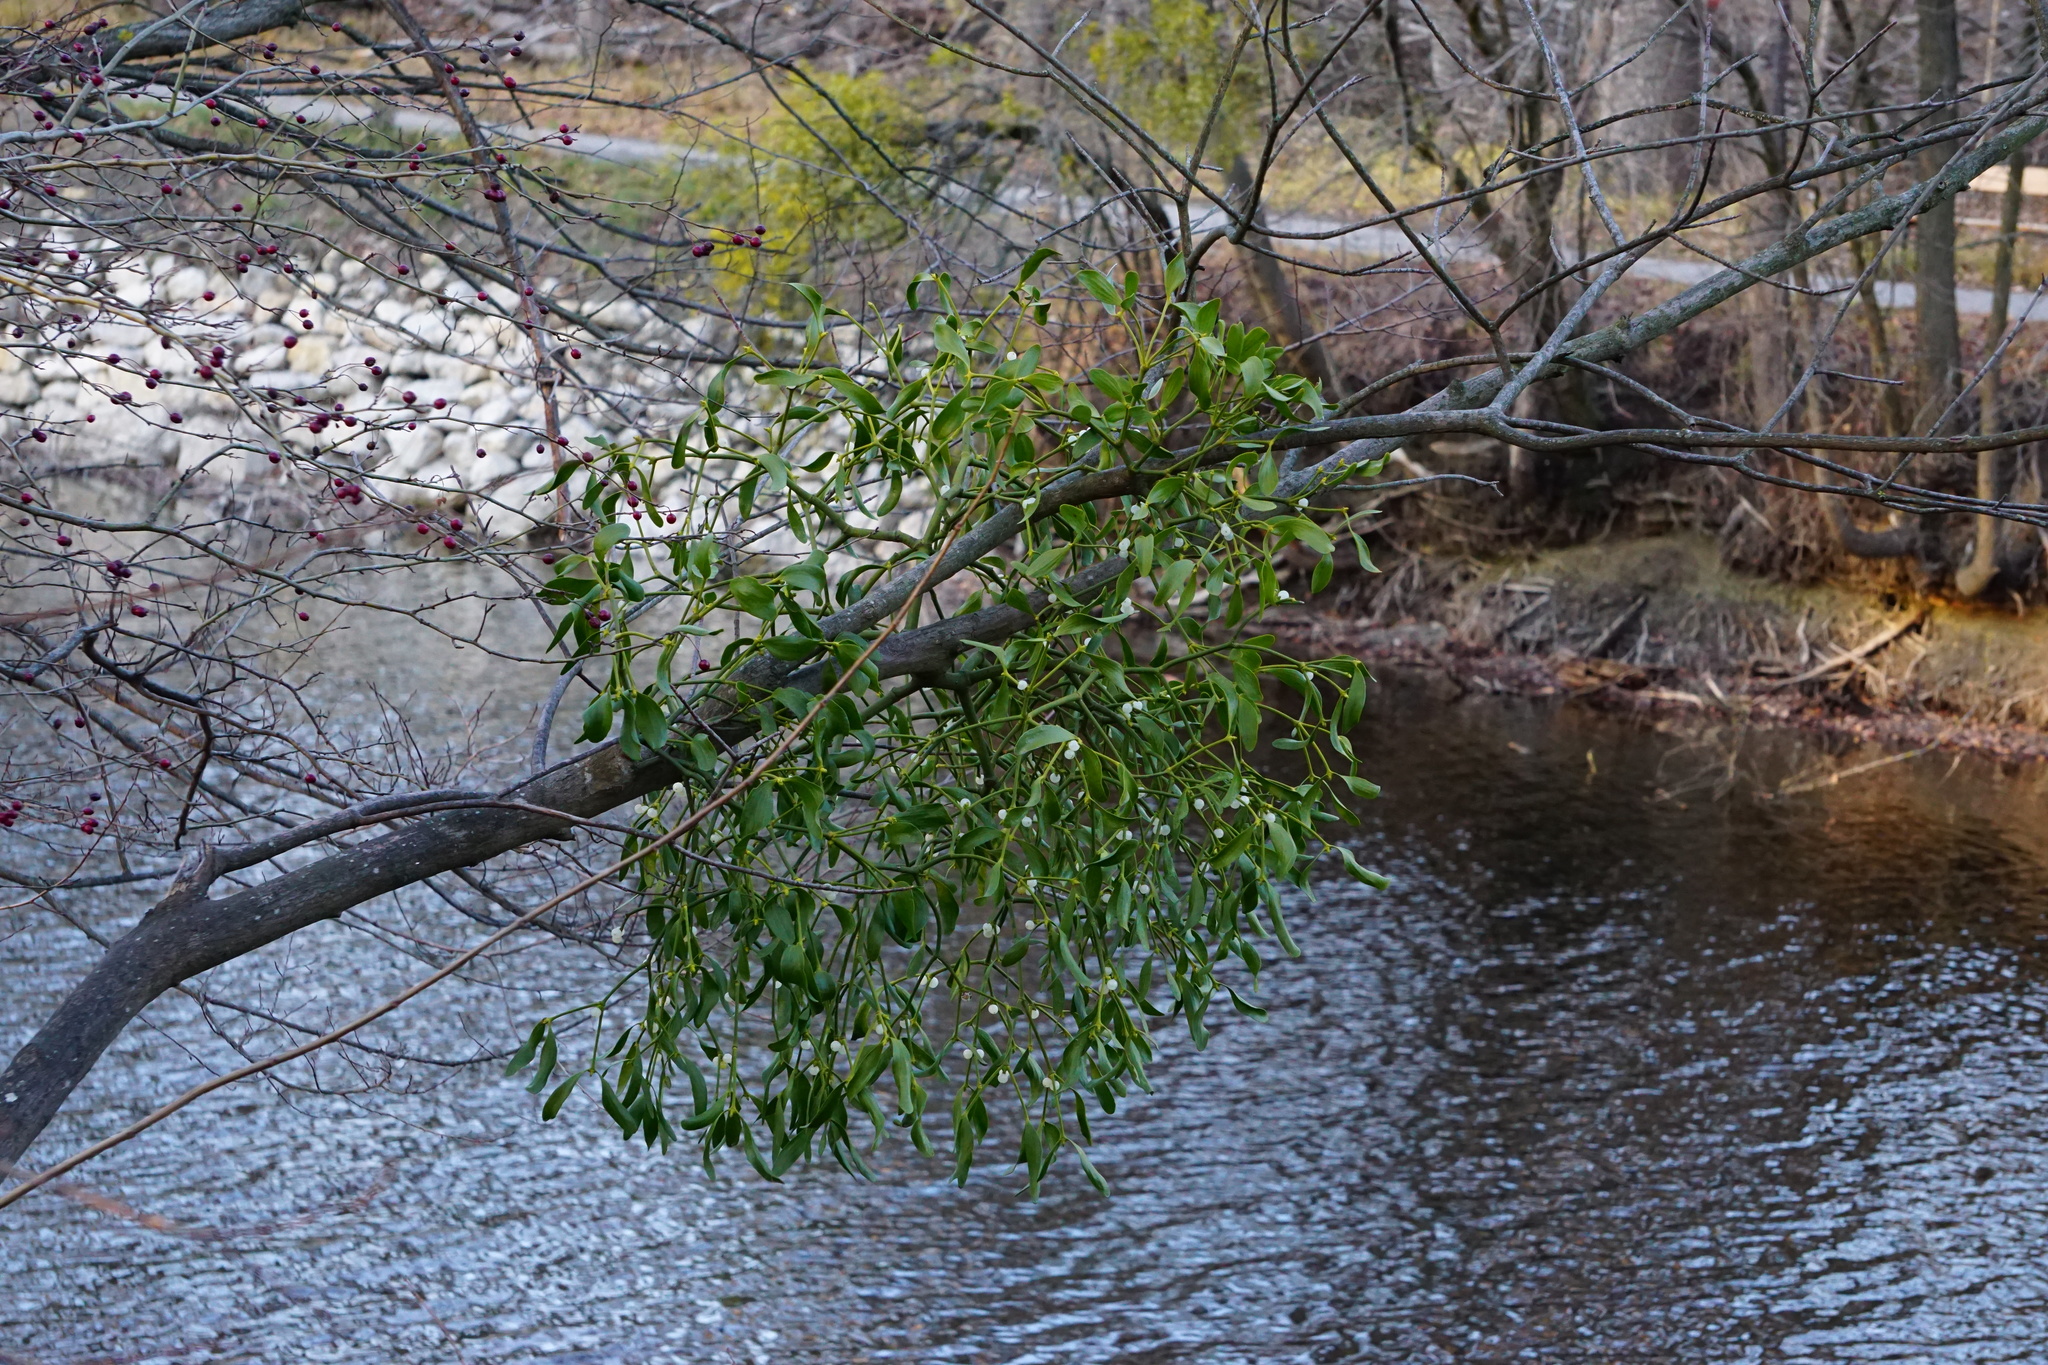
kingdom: Plantae
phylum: Tracheophyta
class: Magnoliopsida
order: Santalales
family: Viscaceae
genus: Viscum
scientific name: Viscum album
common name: Mistletoe
